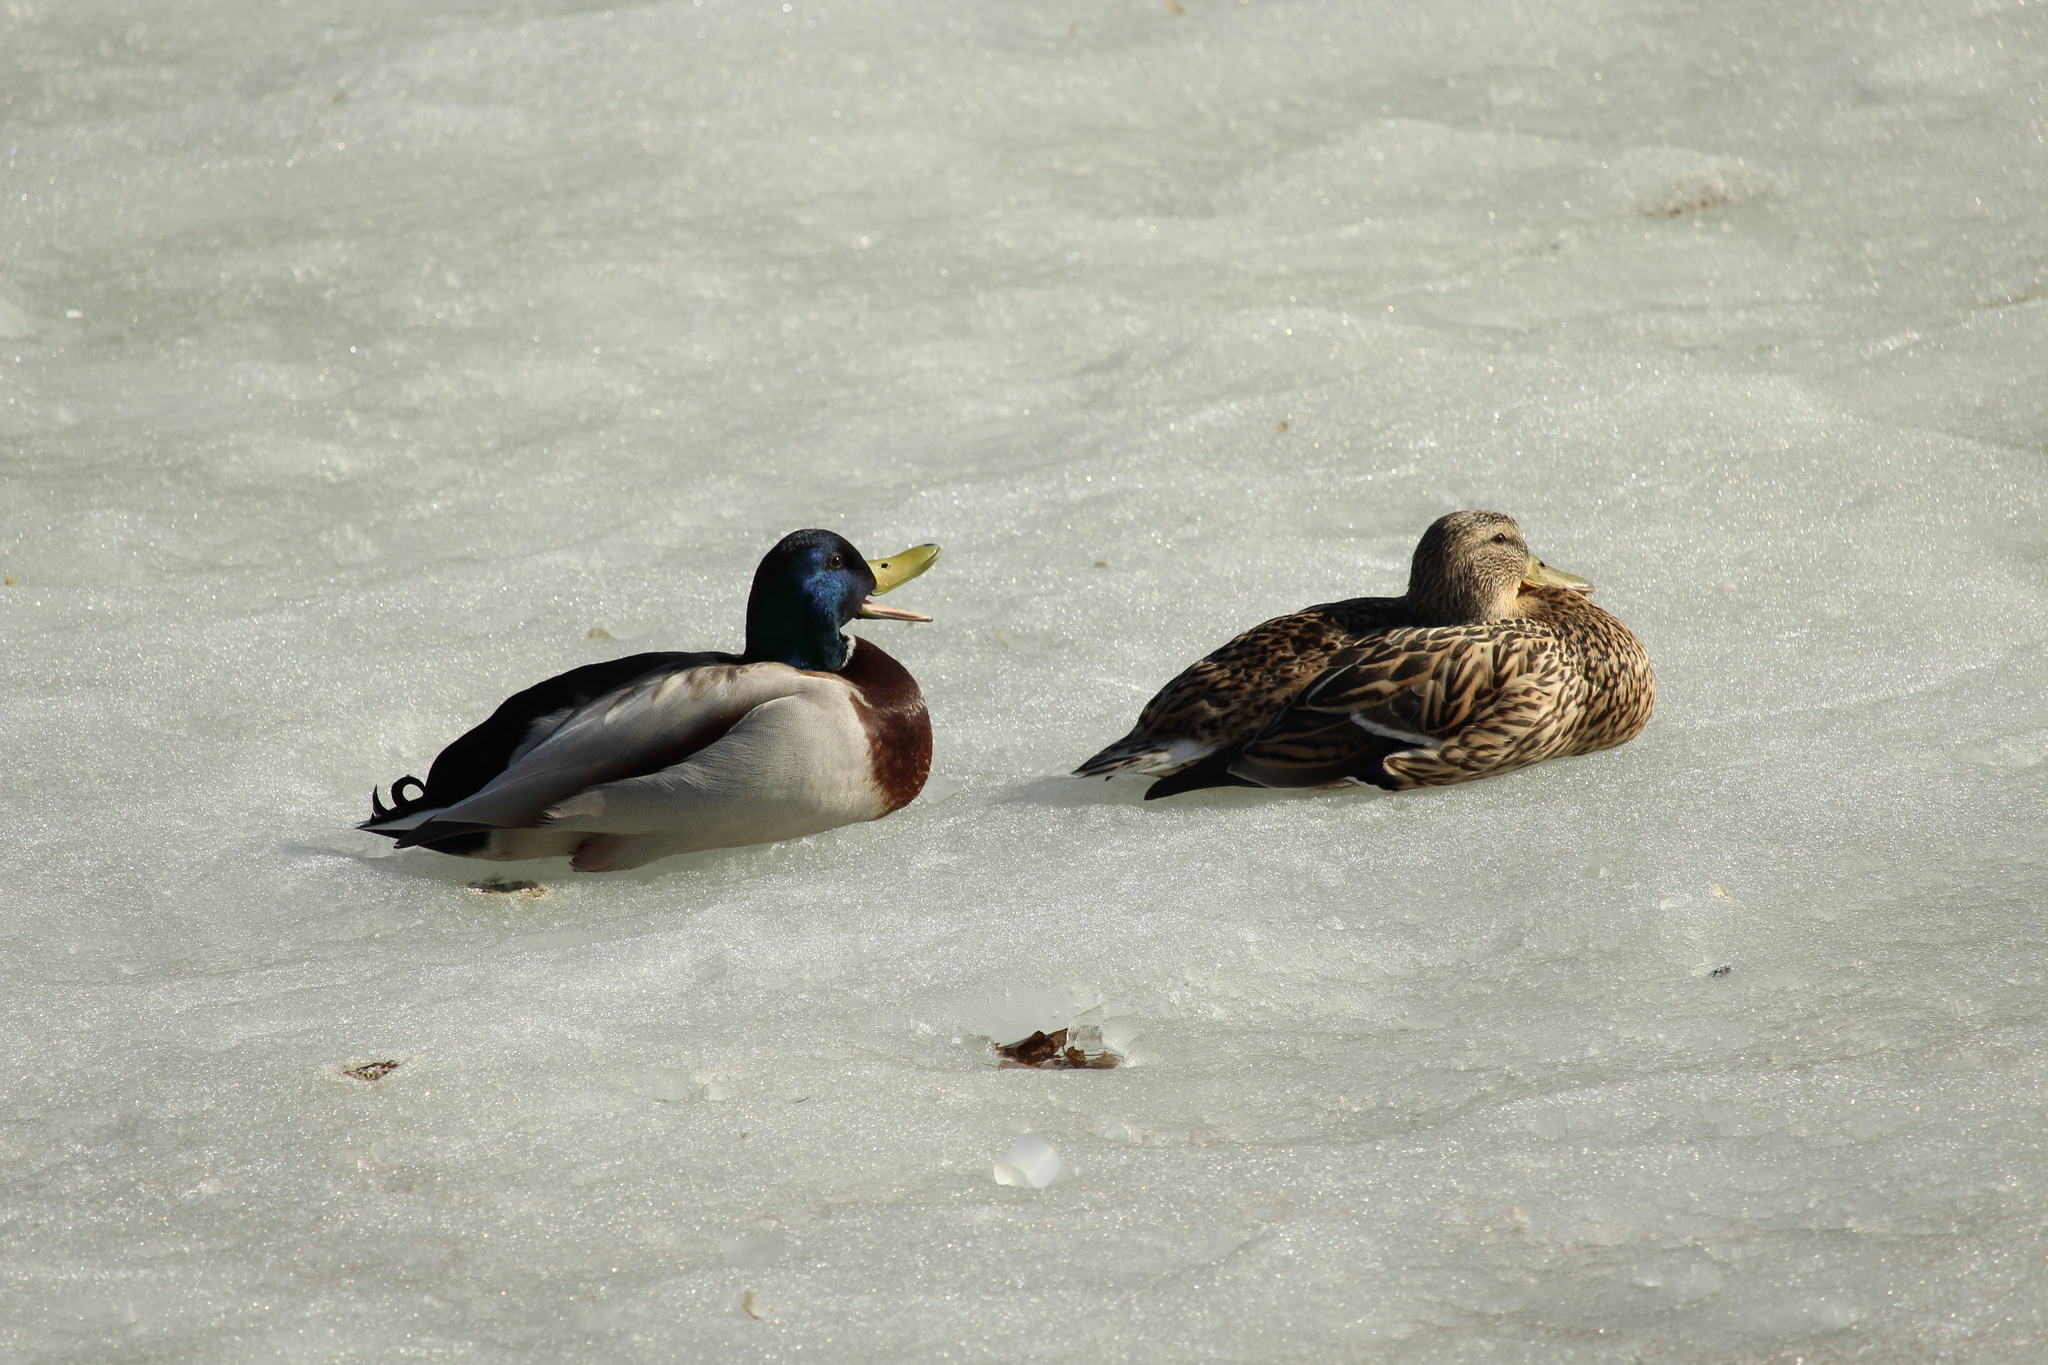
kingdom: Animalia
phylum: Chordata
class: Aves
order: Anseriformes
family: Anatidae
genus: Anas
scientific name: Anas platyrhynchos
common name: Mallard
